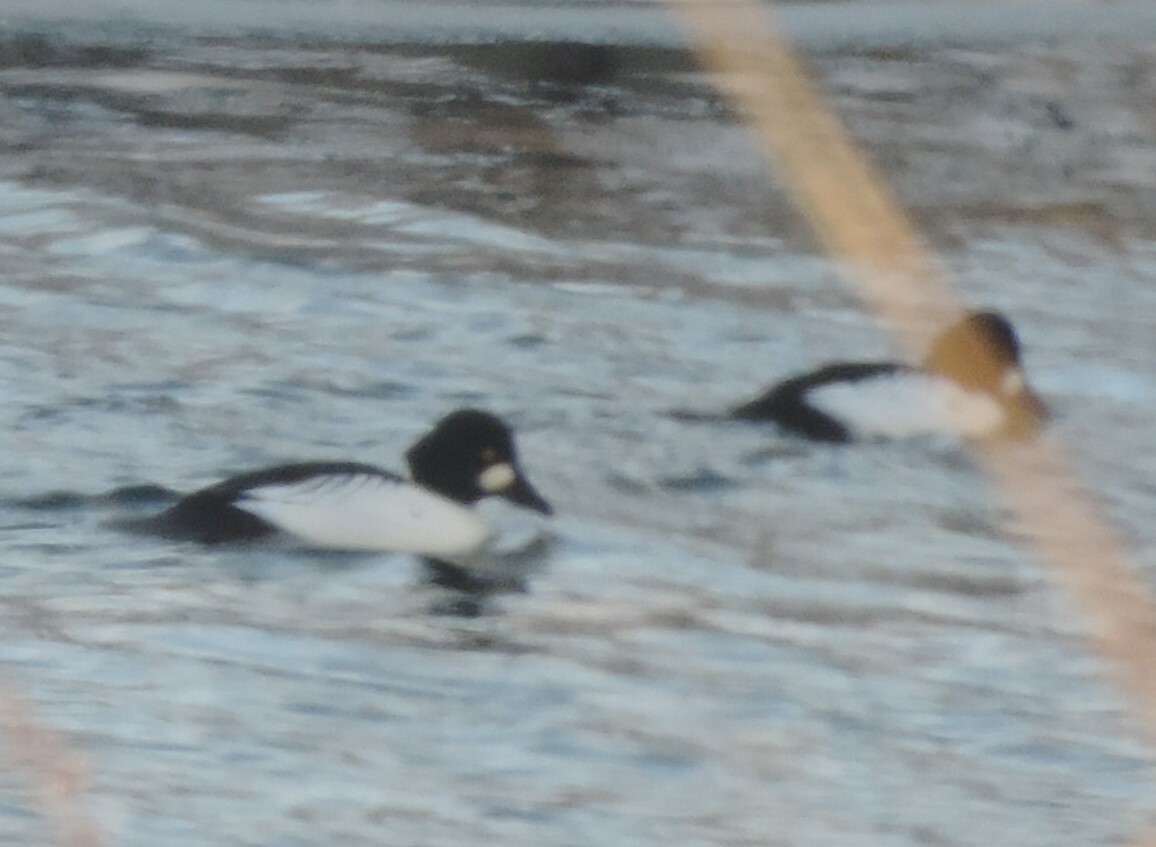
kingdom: Animalia
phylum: Chordata
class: Aves
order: Anseriformes
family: Anatidae
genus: Bucephala
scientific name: Bucephala clangula
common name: Common goldeneye
